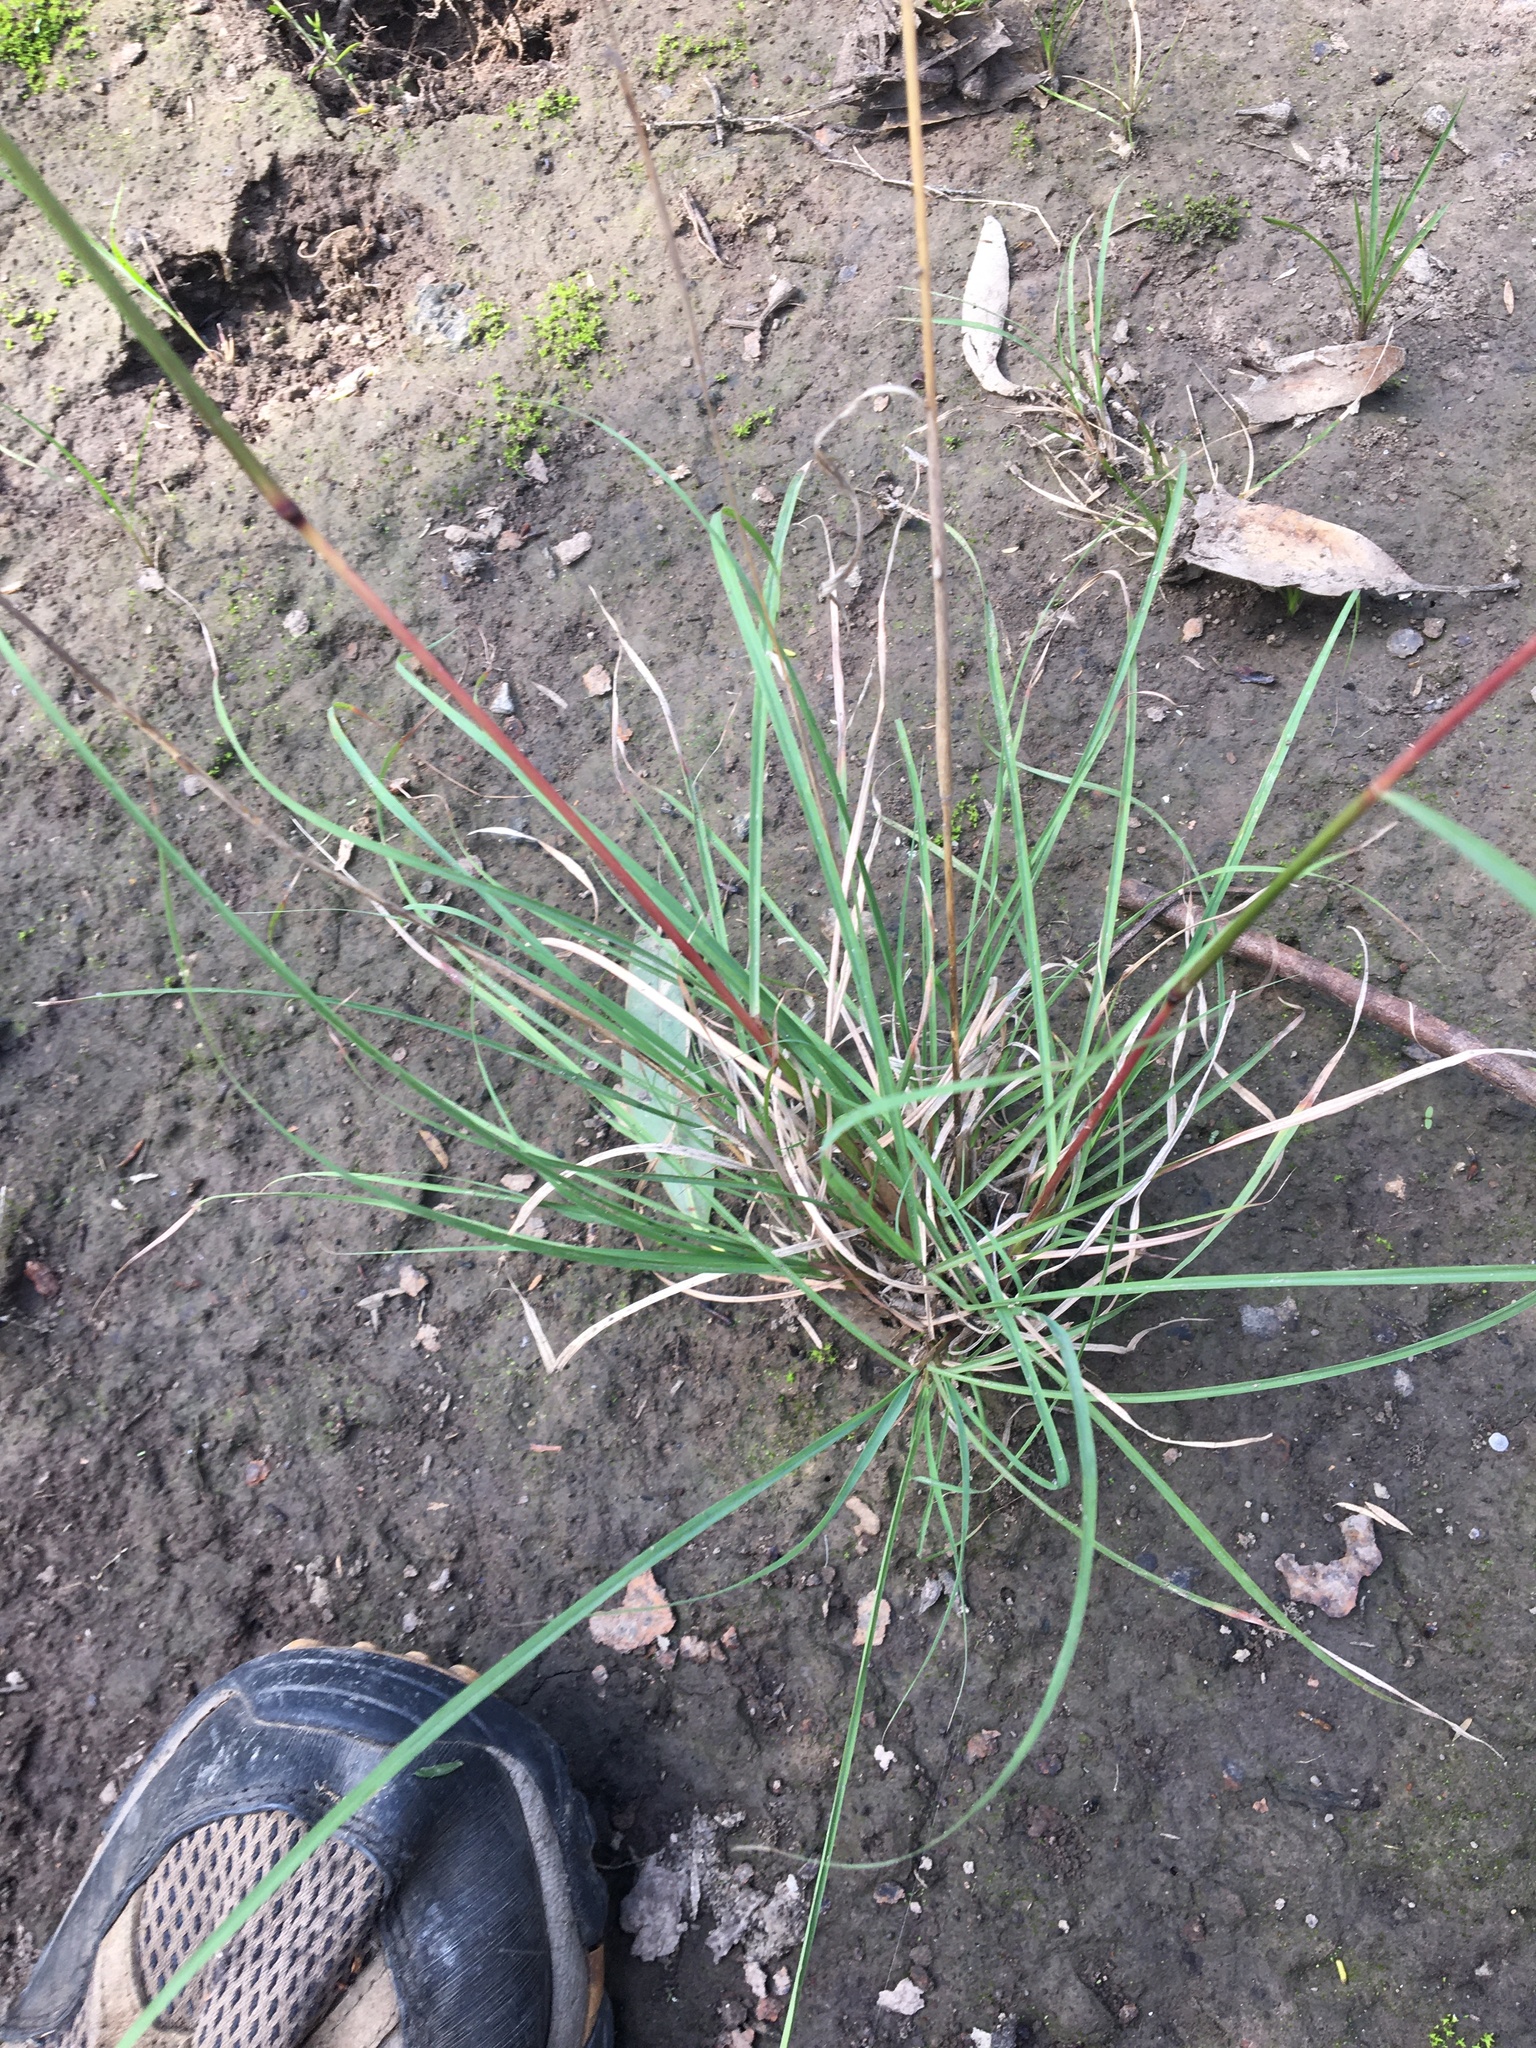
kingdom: Plantae
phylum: Tracheophyta
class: Liliopsida
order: Poales
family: Poaceae
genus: Cymbopogon
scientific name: Cymbopogon refractus
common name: Barbwire grass
